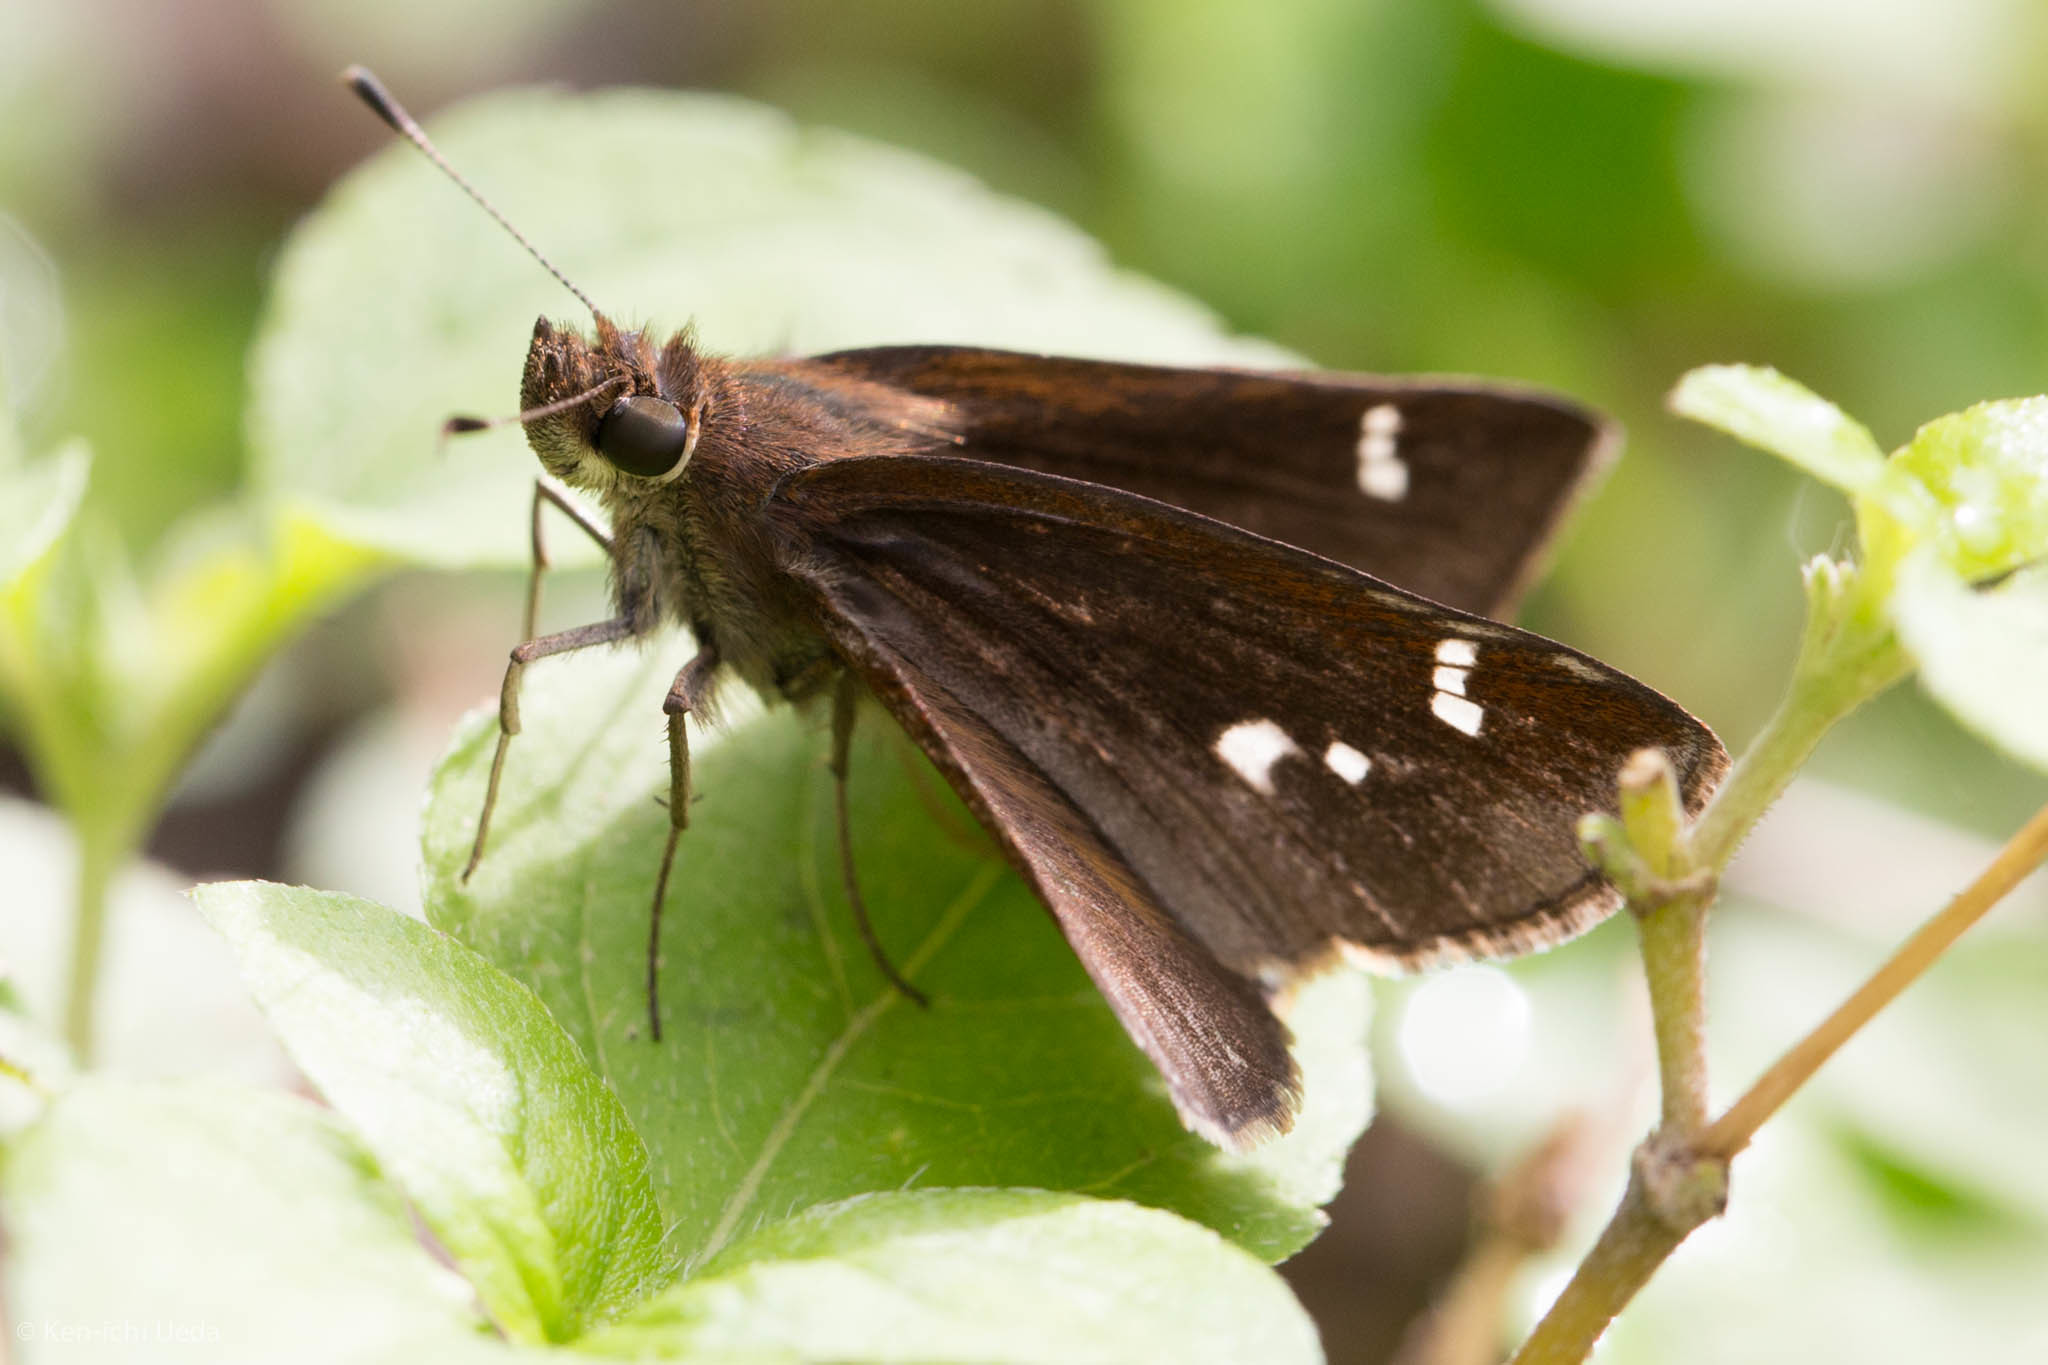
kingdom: Animalia
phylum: Arthropoda
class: Insecta
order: Lepidoptera
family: Hesperiidae
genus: Lerema
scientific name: Lerema accius
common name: Clouded skipper
